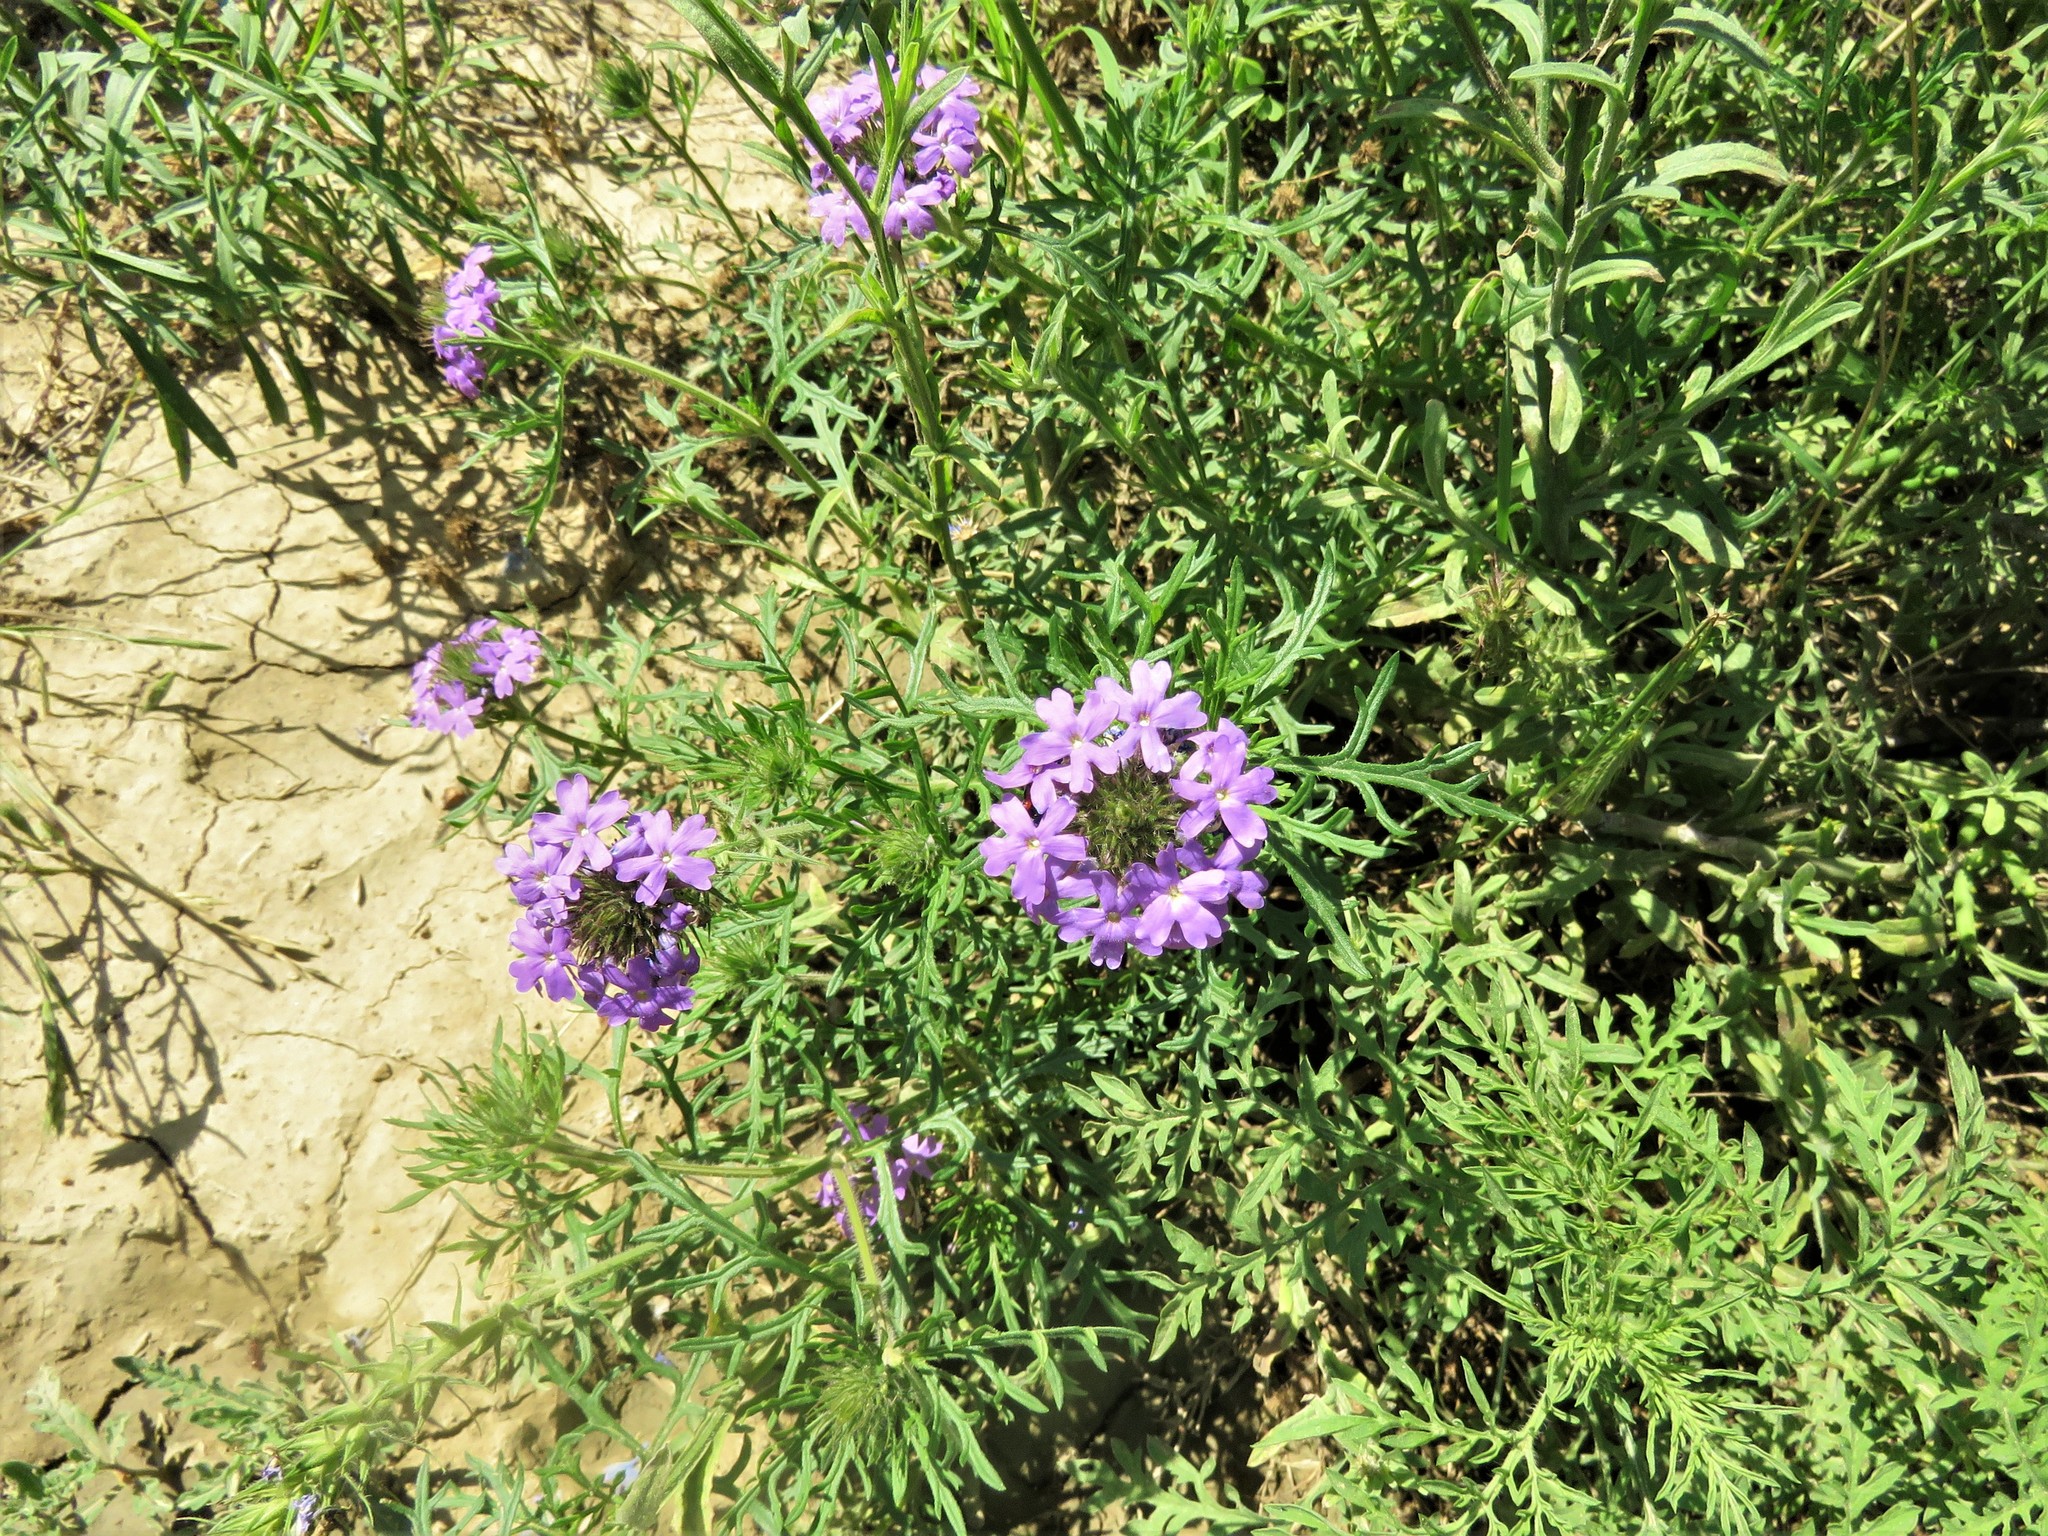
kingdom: Plantae
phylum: Tracheophyta
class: Magnoliopsida
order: Lamiales
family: Verbenaceae
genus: Verbena
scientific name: Verbena bipinnatifida
